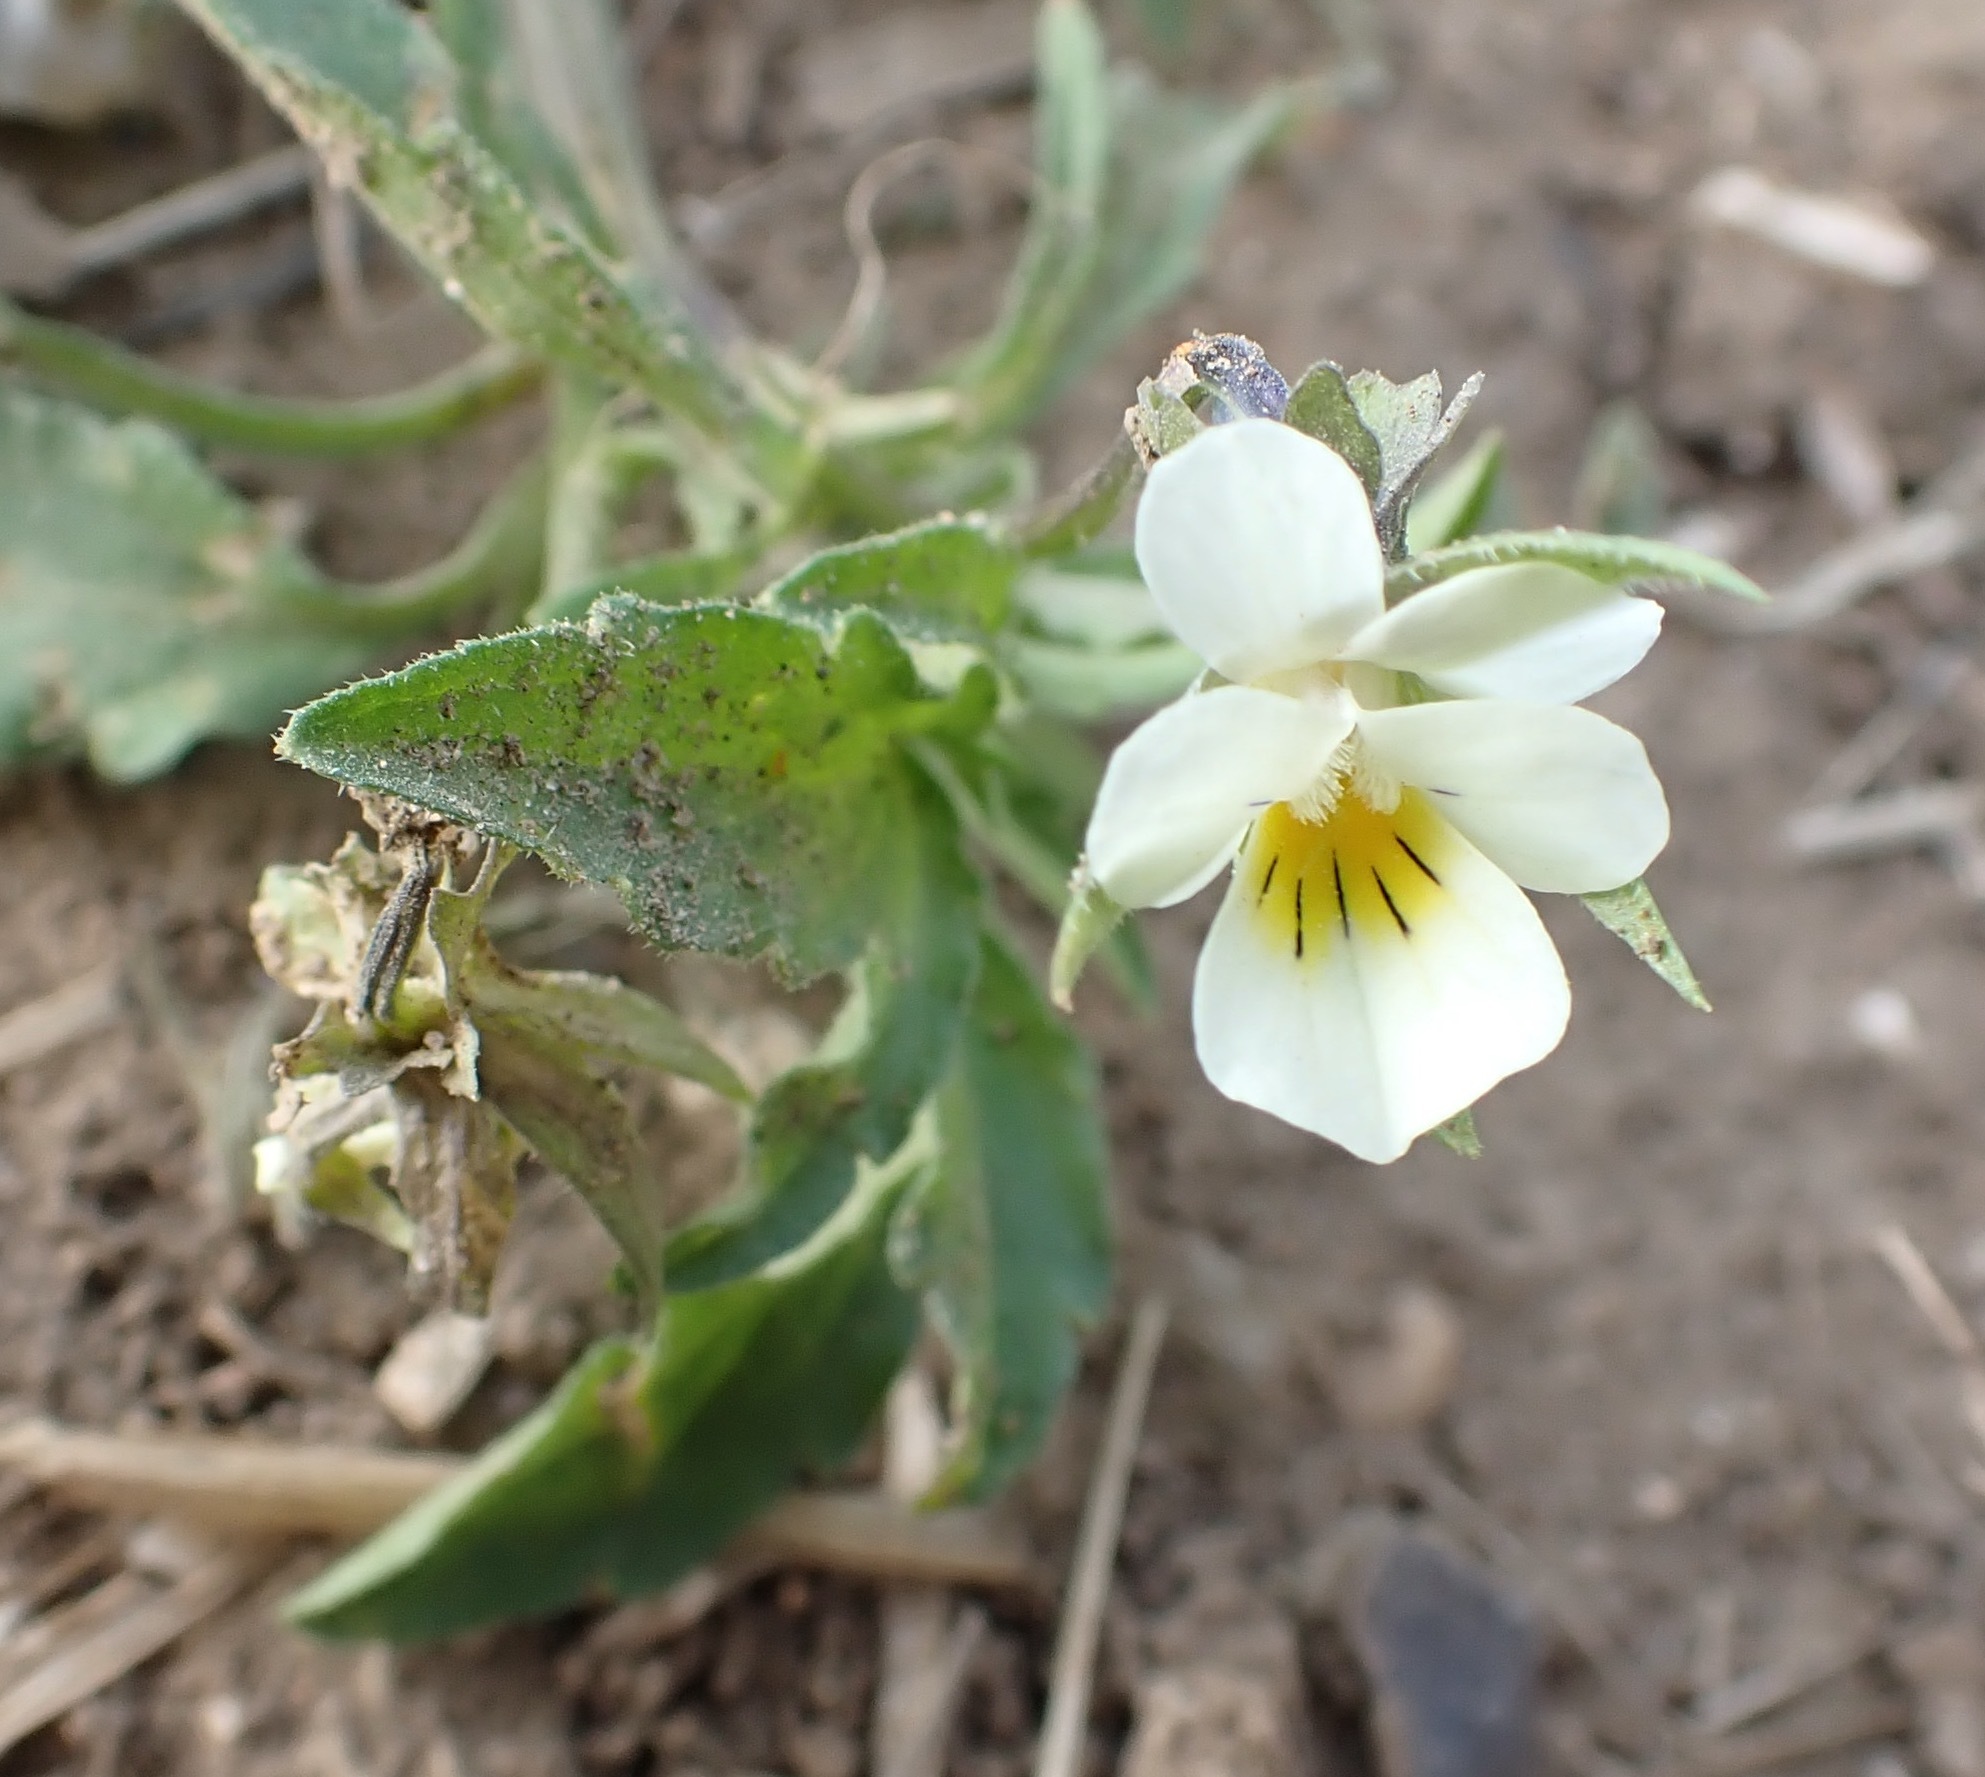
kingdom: Plantae
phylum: Tracheophyta
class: Magnoliopsida
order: Malpighiales
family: Violaceae
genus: Viola
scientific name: Viola arvensis
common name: Field pansy
